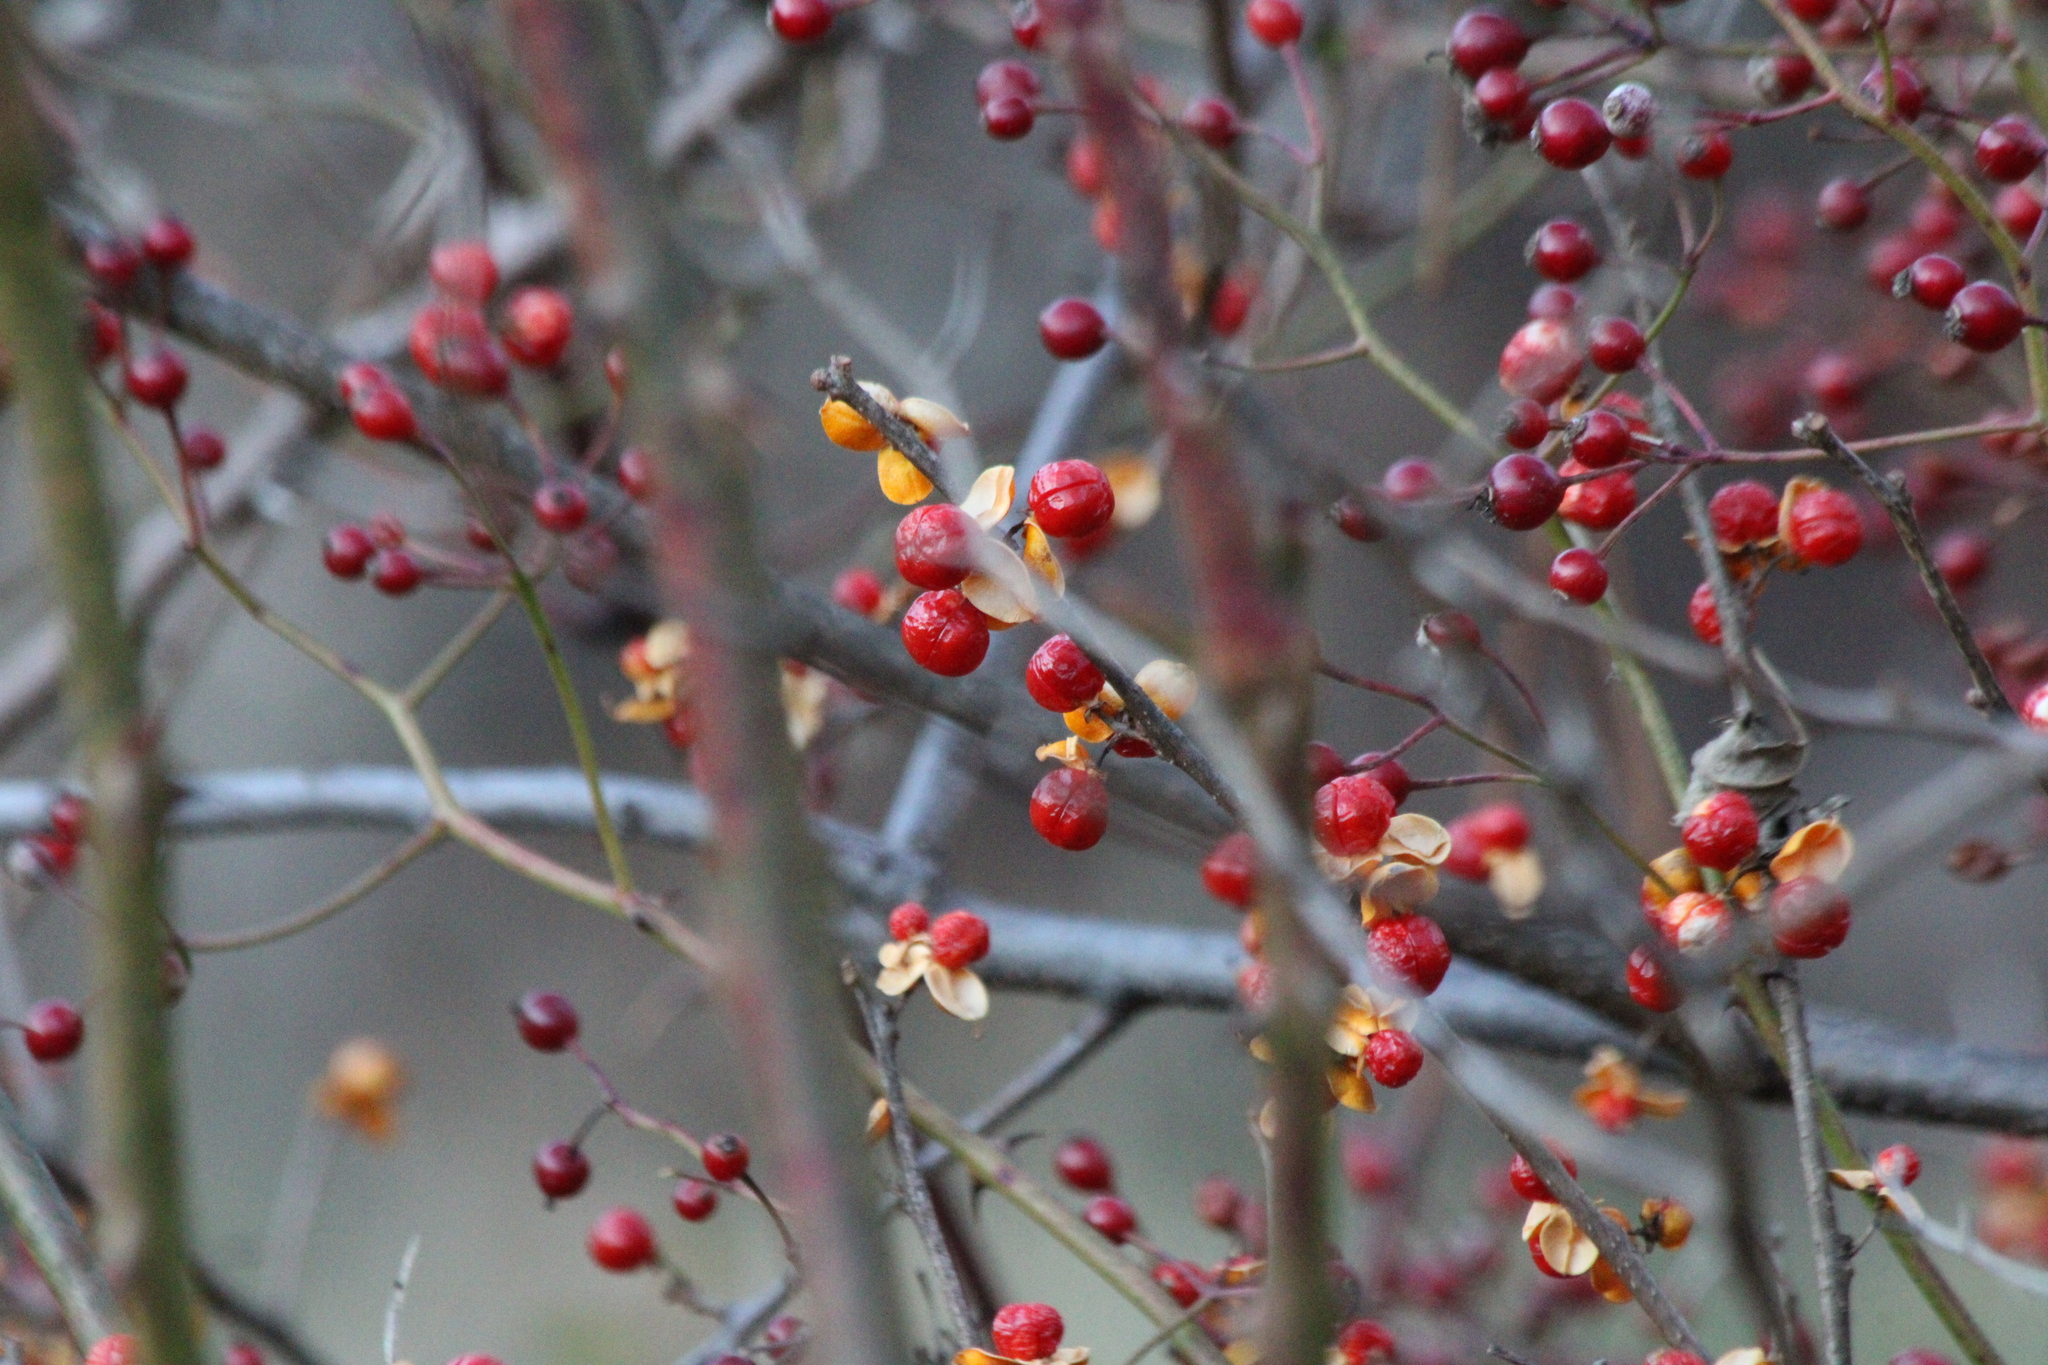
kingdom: Plantae
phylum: Tracheophyta
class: Magnoliopsida
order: Celastrales
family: Celastraceae
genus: Celastrus
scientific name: Celastrus orbiculatus
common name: Oriental bittersweet
